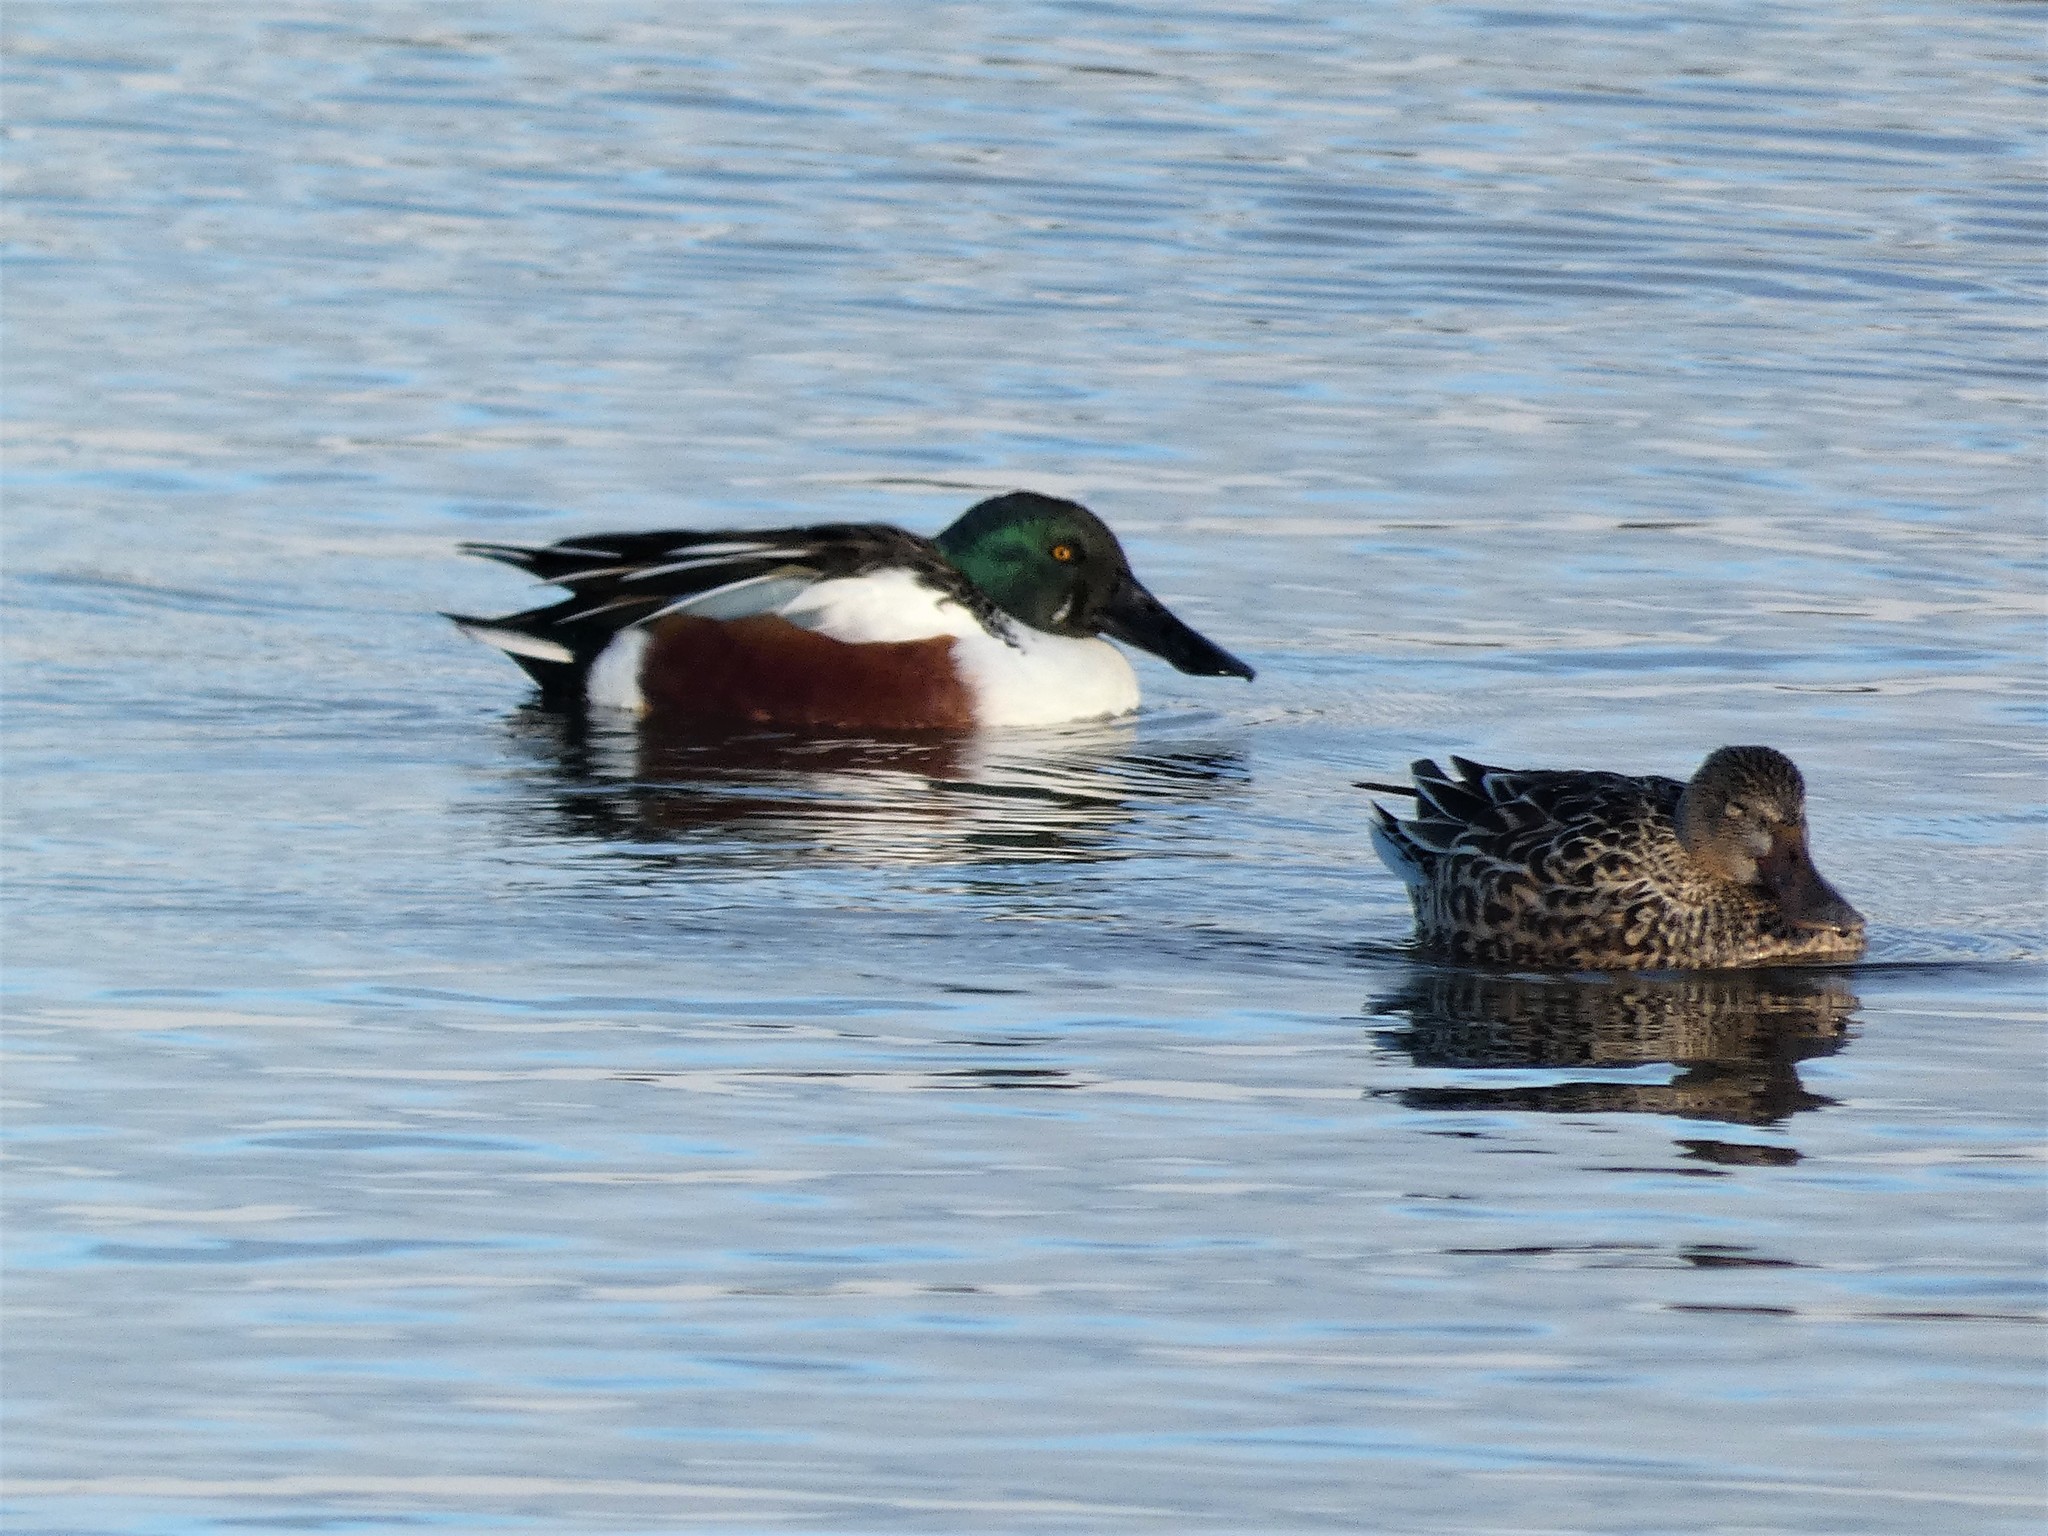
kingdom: Animalia
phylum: Chordata
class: Aves
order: Anseriformes
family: Anatidae
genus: Spatula
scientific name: Spatula clypeata
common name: Northern shoveler
